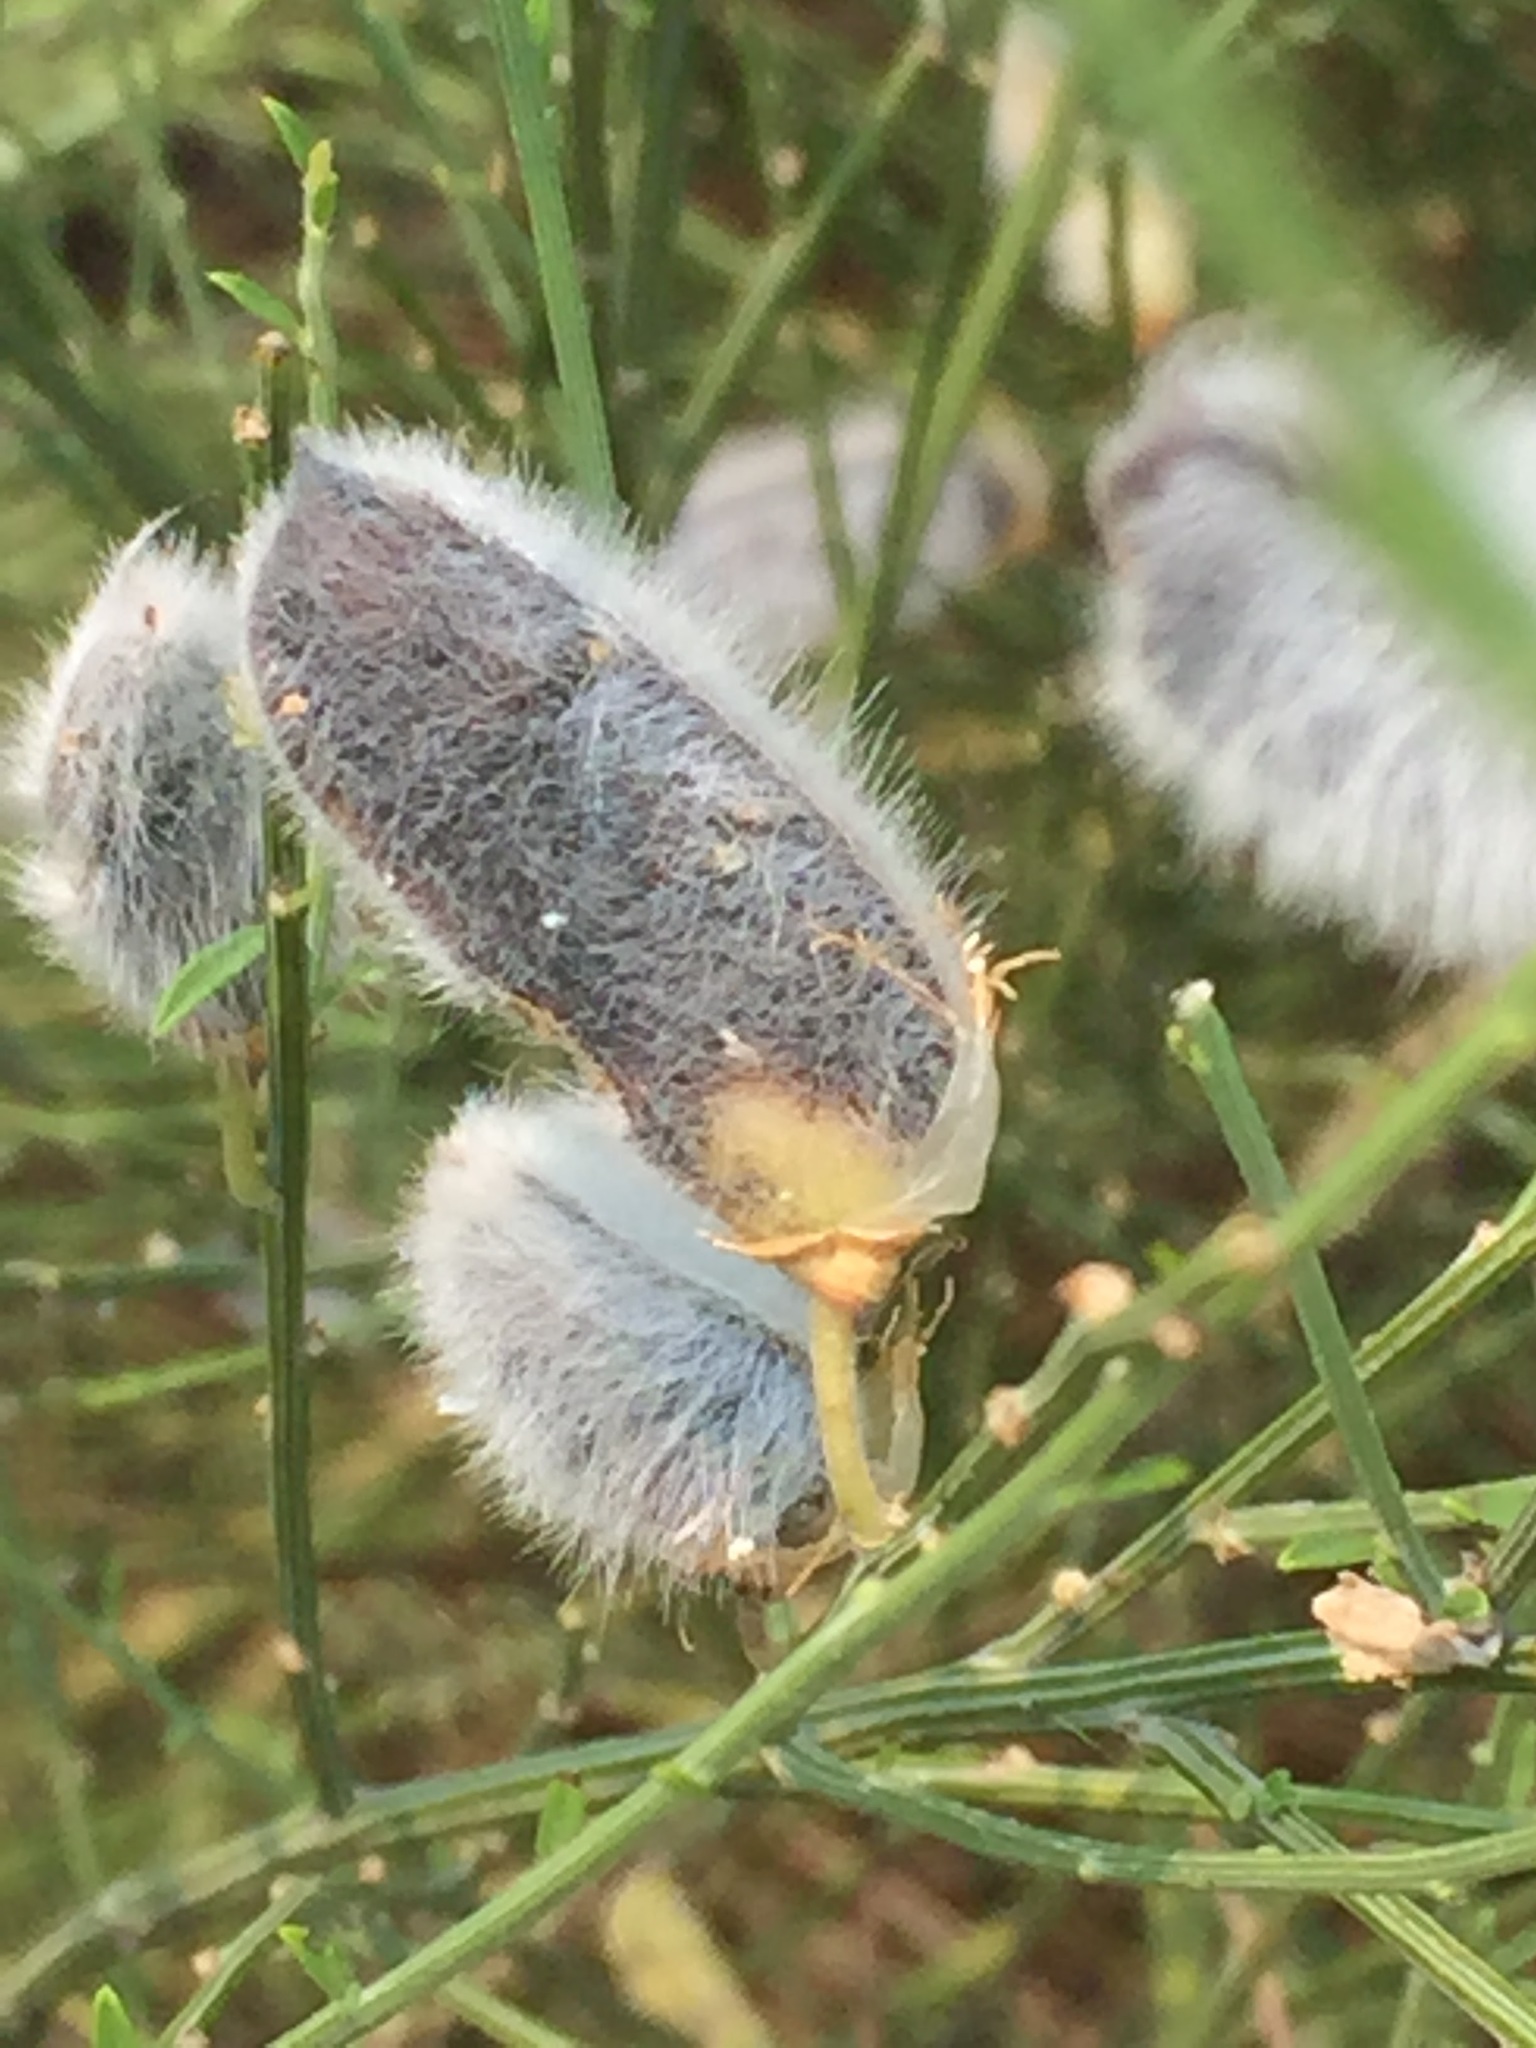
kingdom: Plantae
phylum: Tracheophyta
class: Magnoliopsida
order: Fabales
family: Fabaceae
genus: Cytisus
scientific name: Cytisus striatus
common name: Hairy-fruited broom
